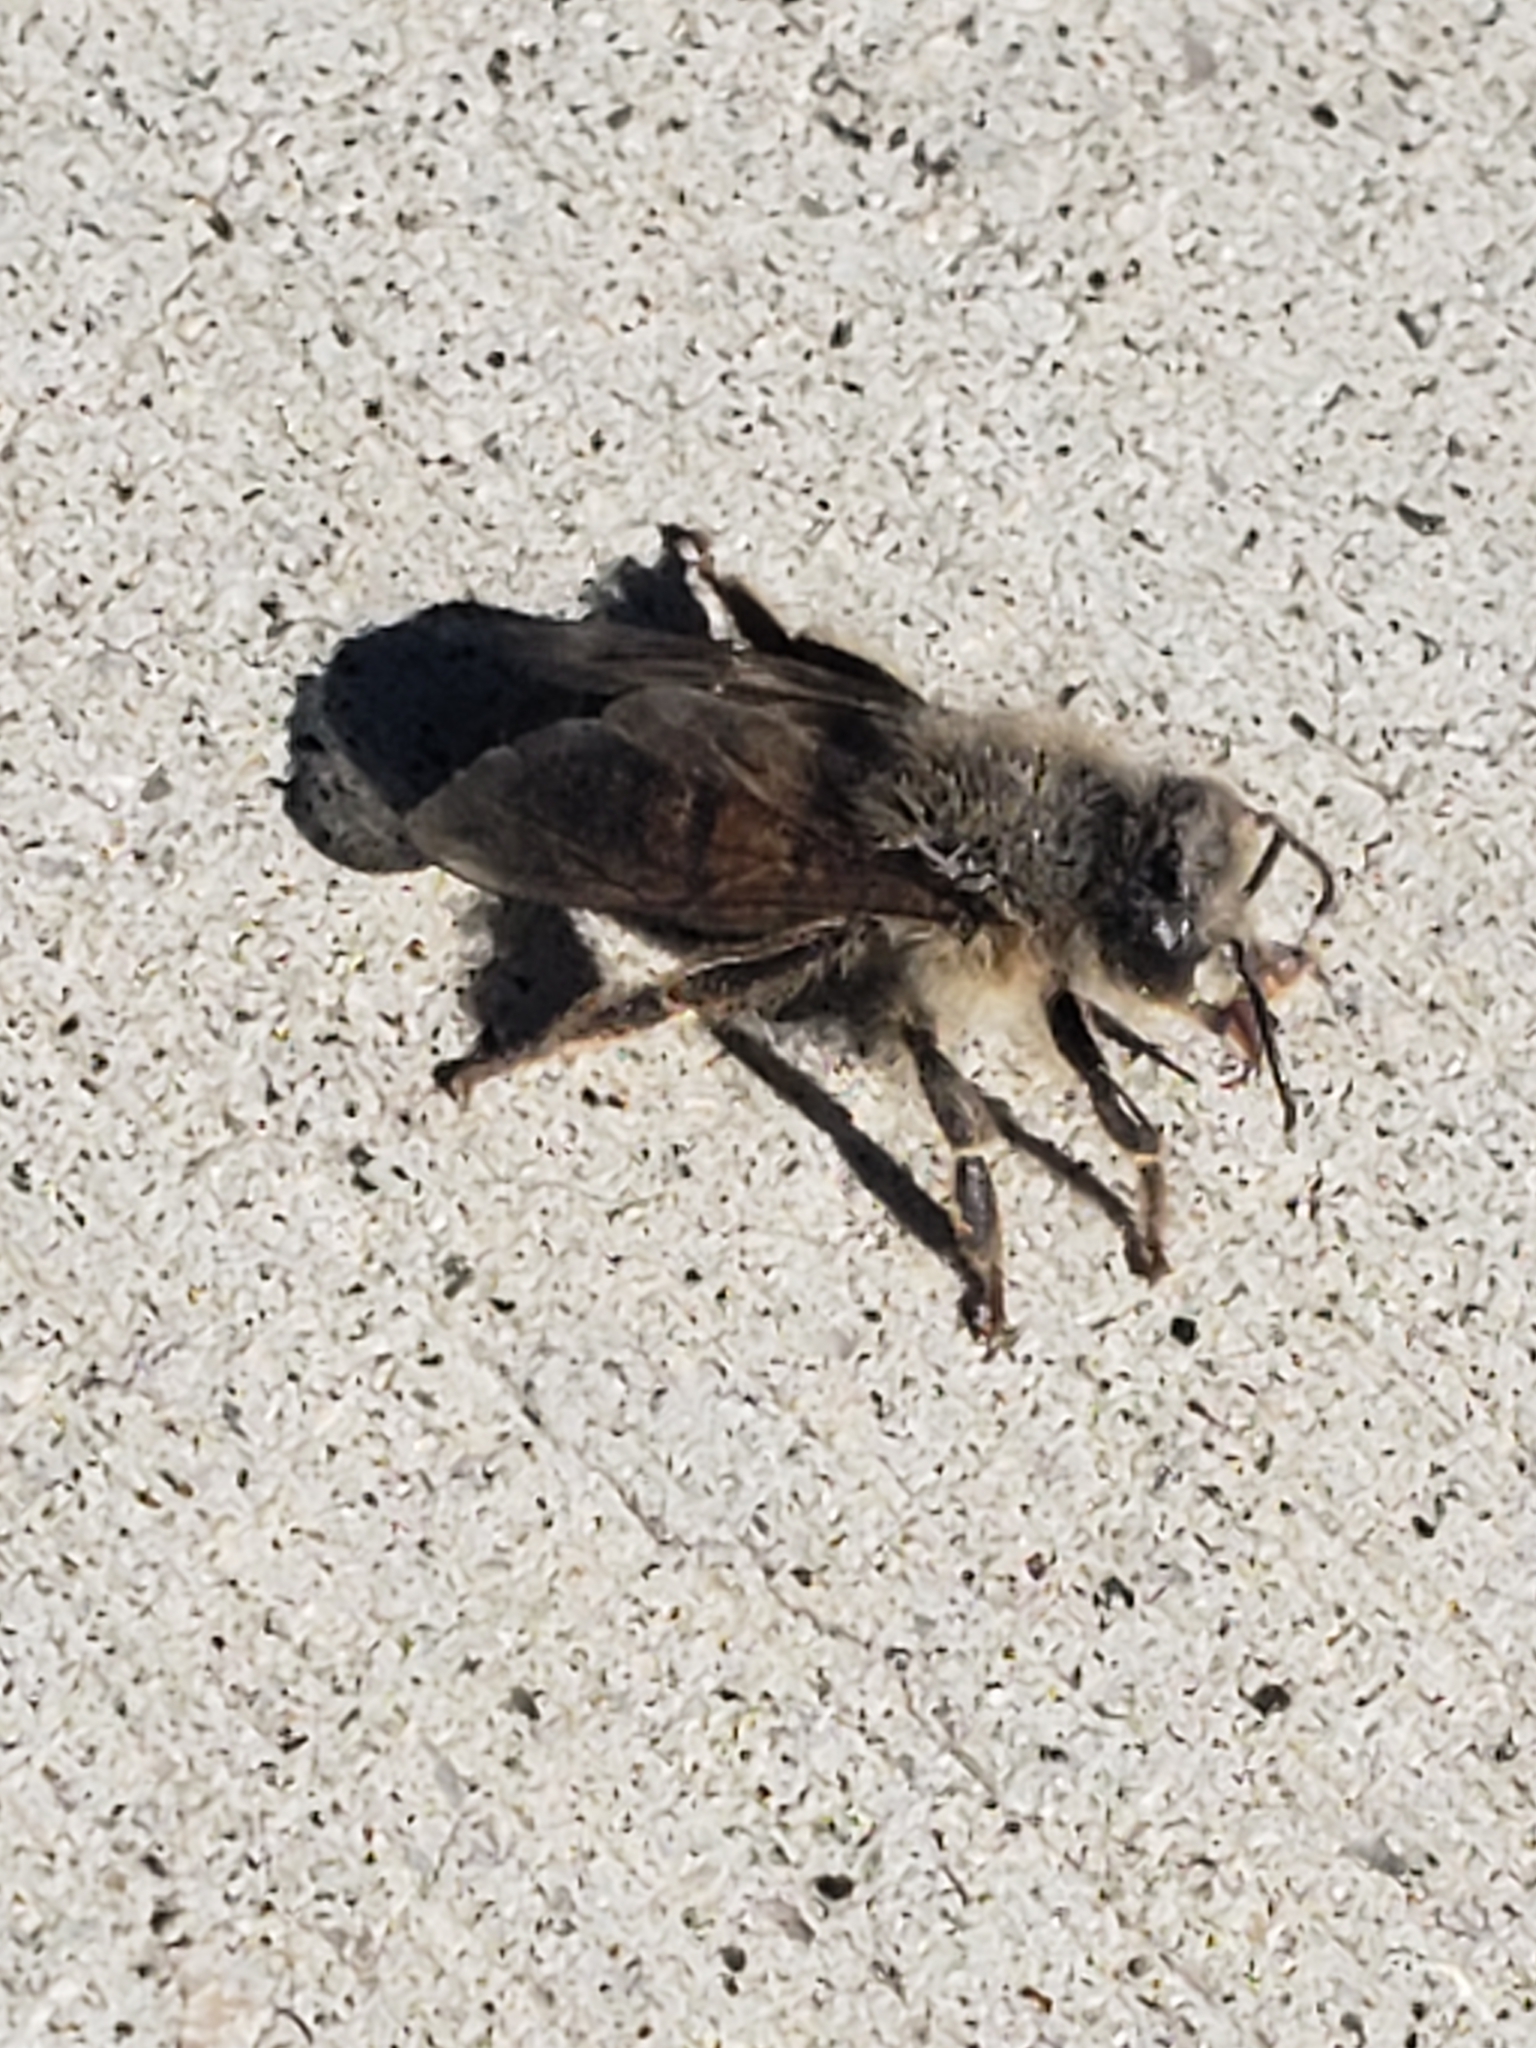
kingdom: Animalia
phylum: Arthropoda
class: Insecta
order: Hymenoptera
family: Apidae
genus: Apis
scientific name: Apis mellifera
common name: Honey bee
